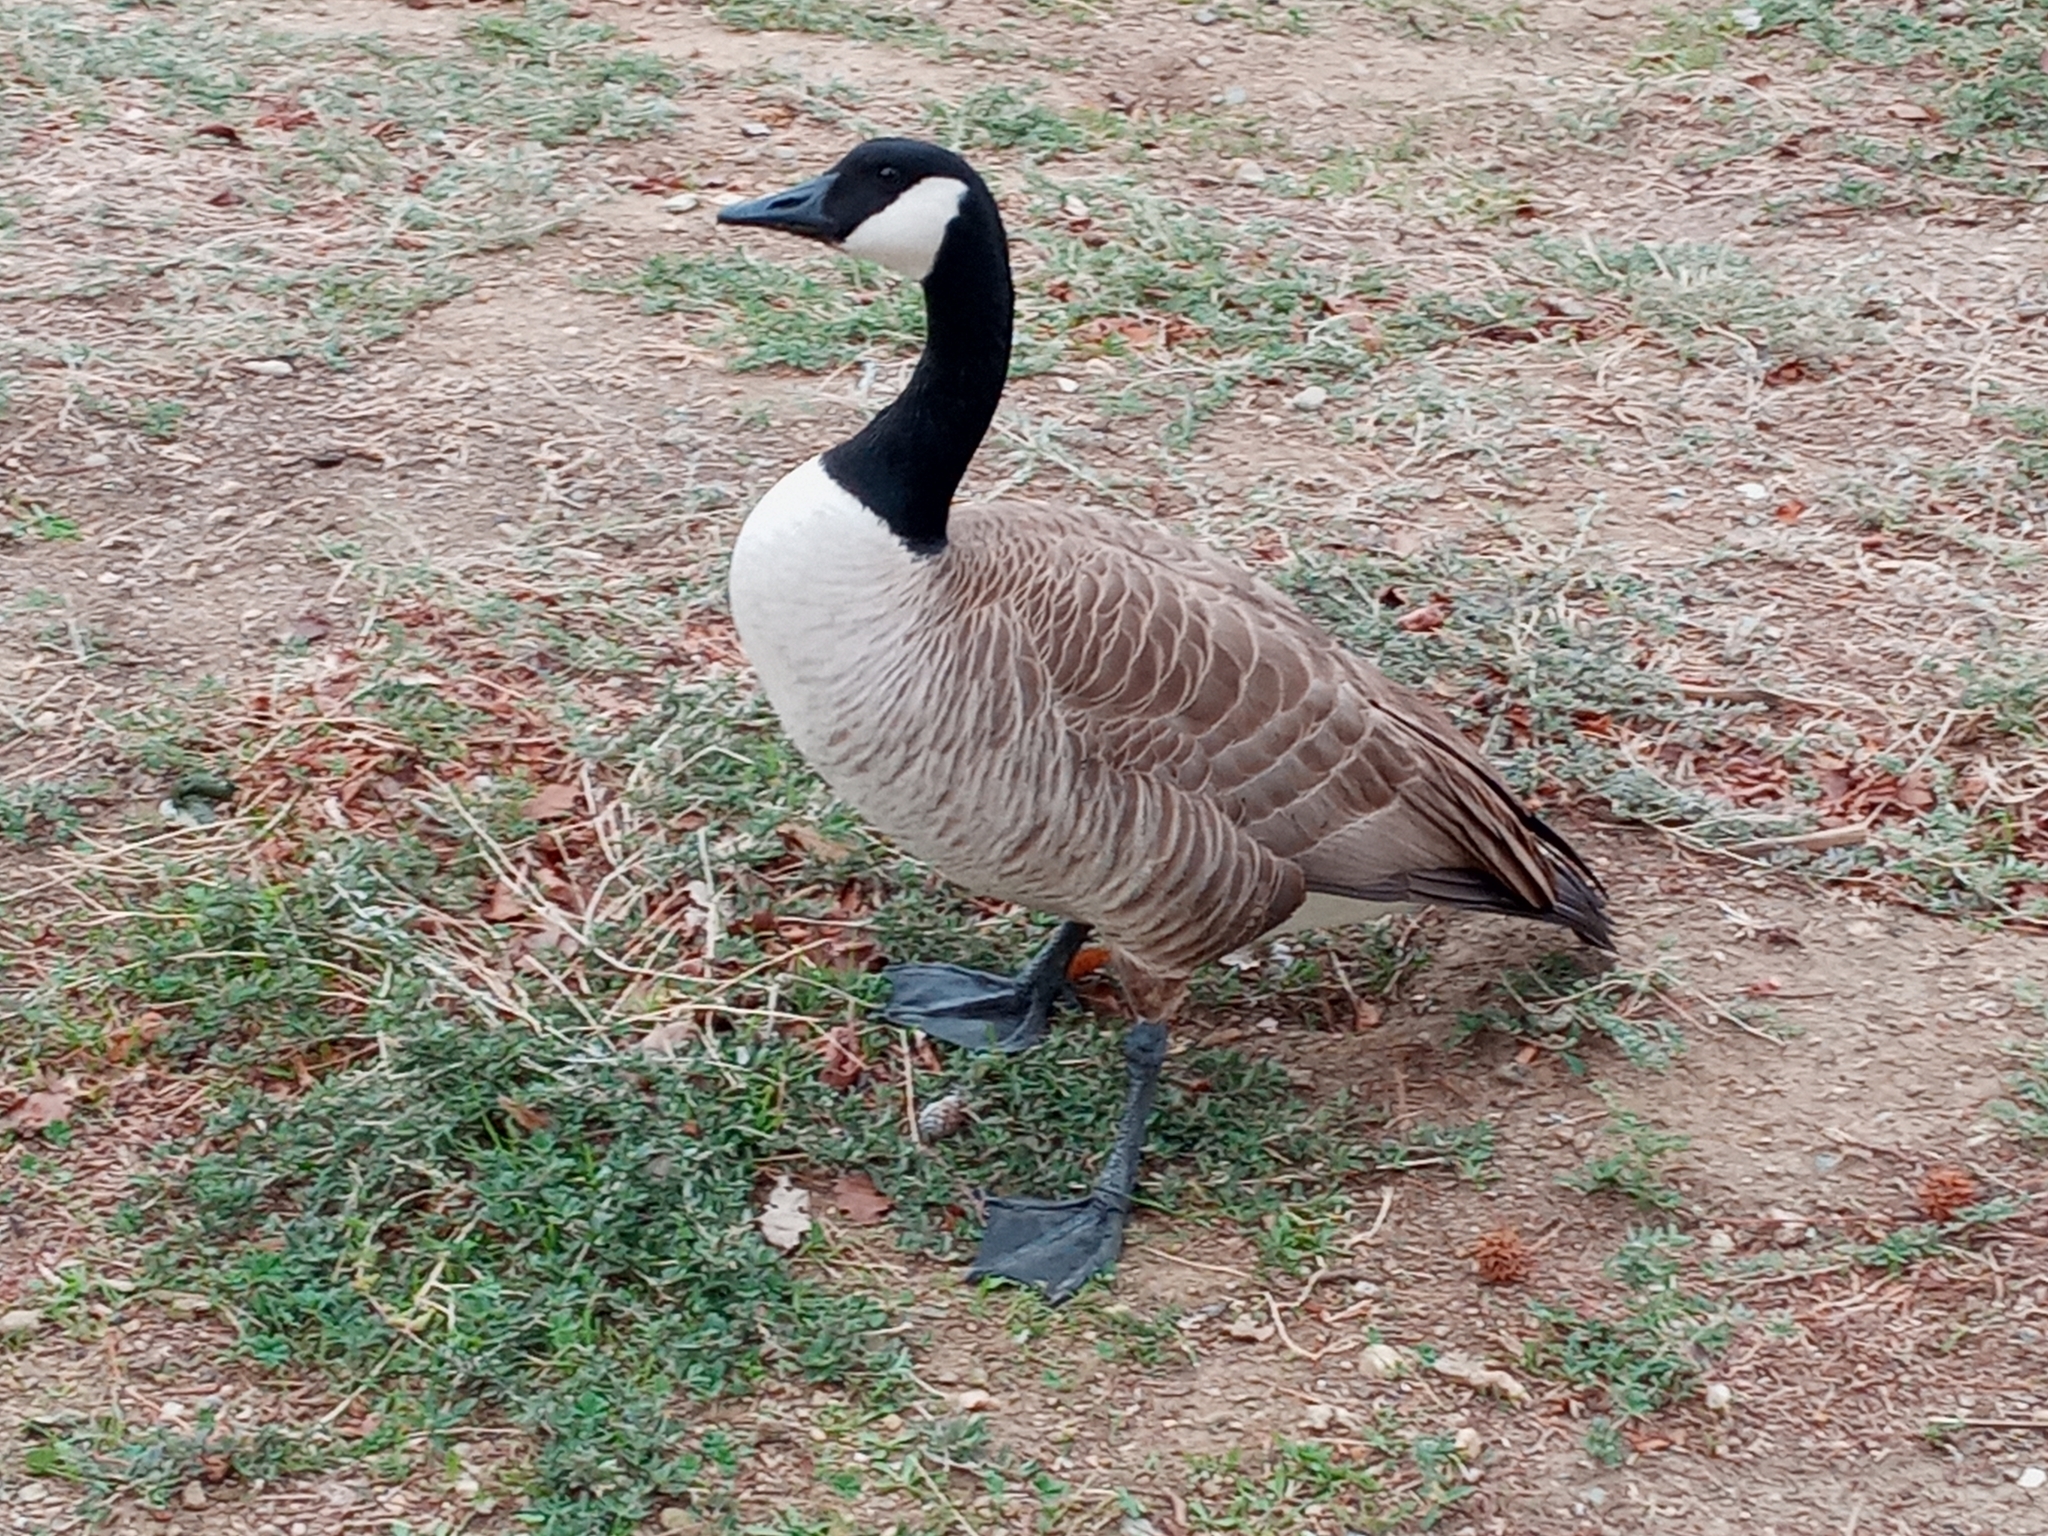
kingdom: Animalia
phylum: Chordata
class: Aves
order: Anseriformes
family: Anatidae
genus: Branta
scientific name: Branta canadensis
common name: Canada goose
